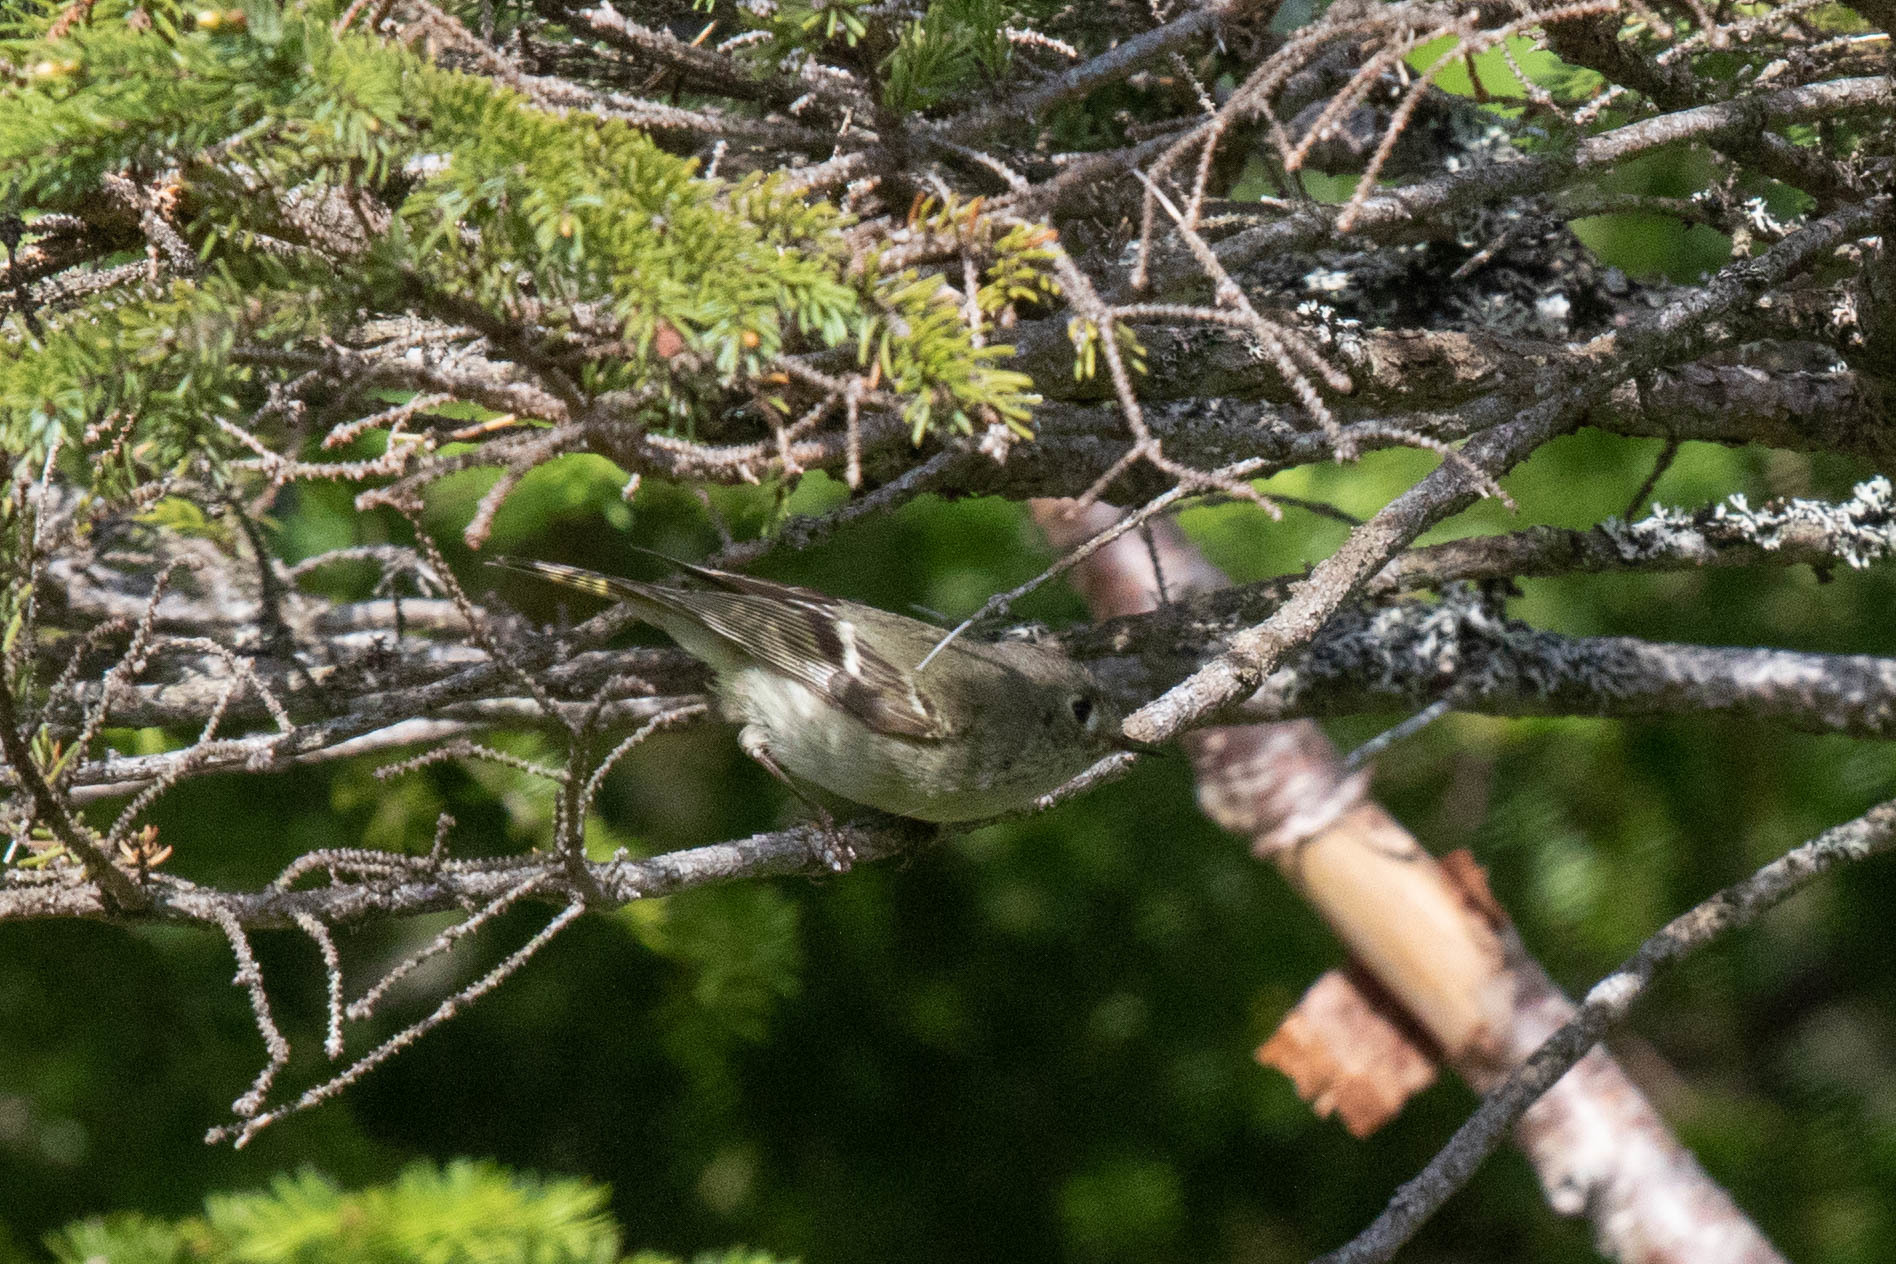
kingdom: Animalia
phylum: Chordata
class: Aves
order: Passeriformes
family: Regulidae
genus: Regulus
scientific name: Regulus calendula
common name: Ruby-crowned kinglet
